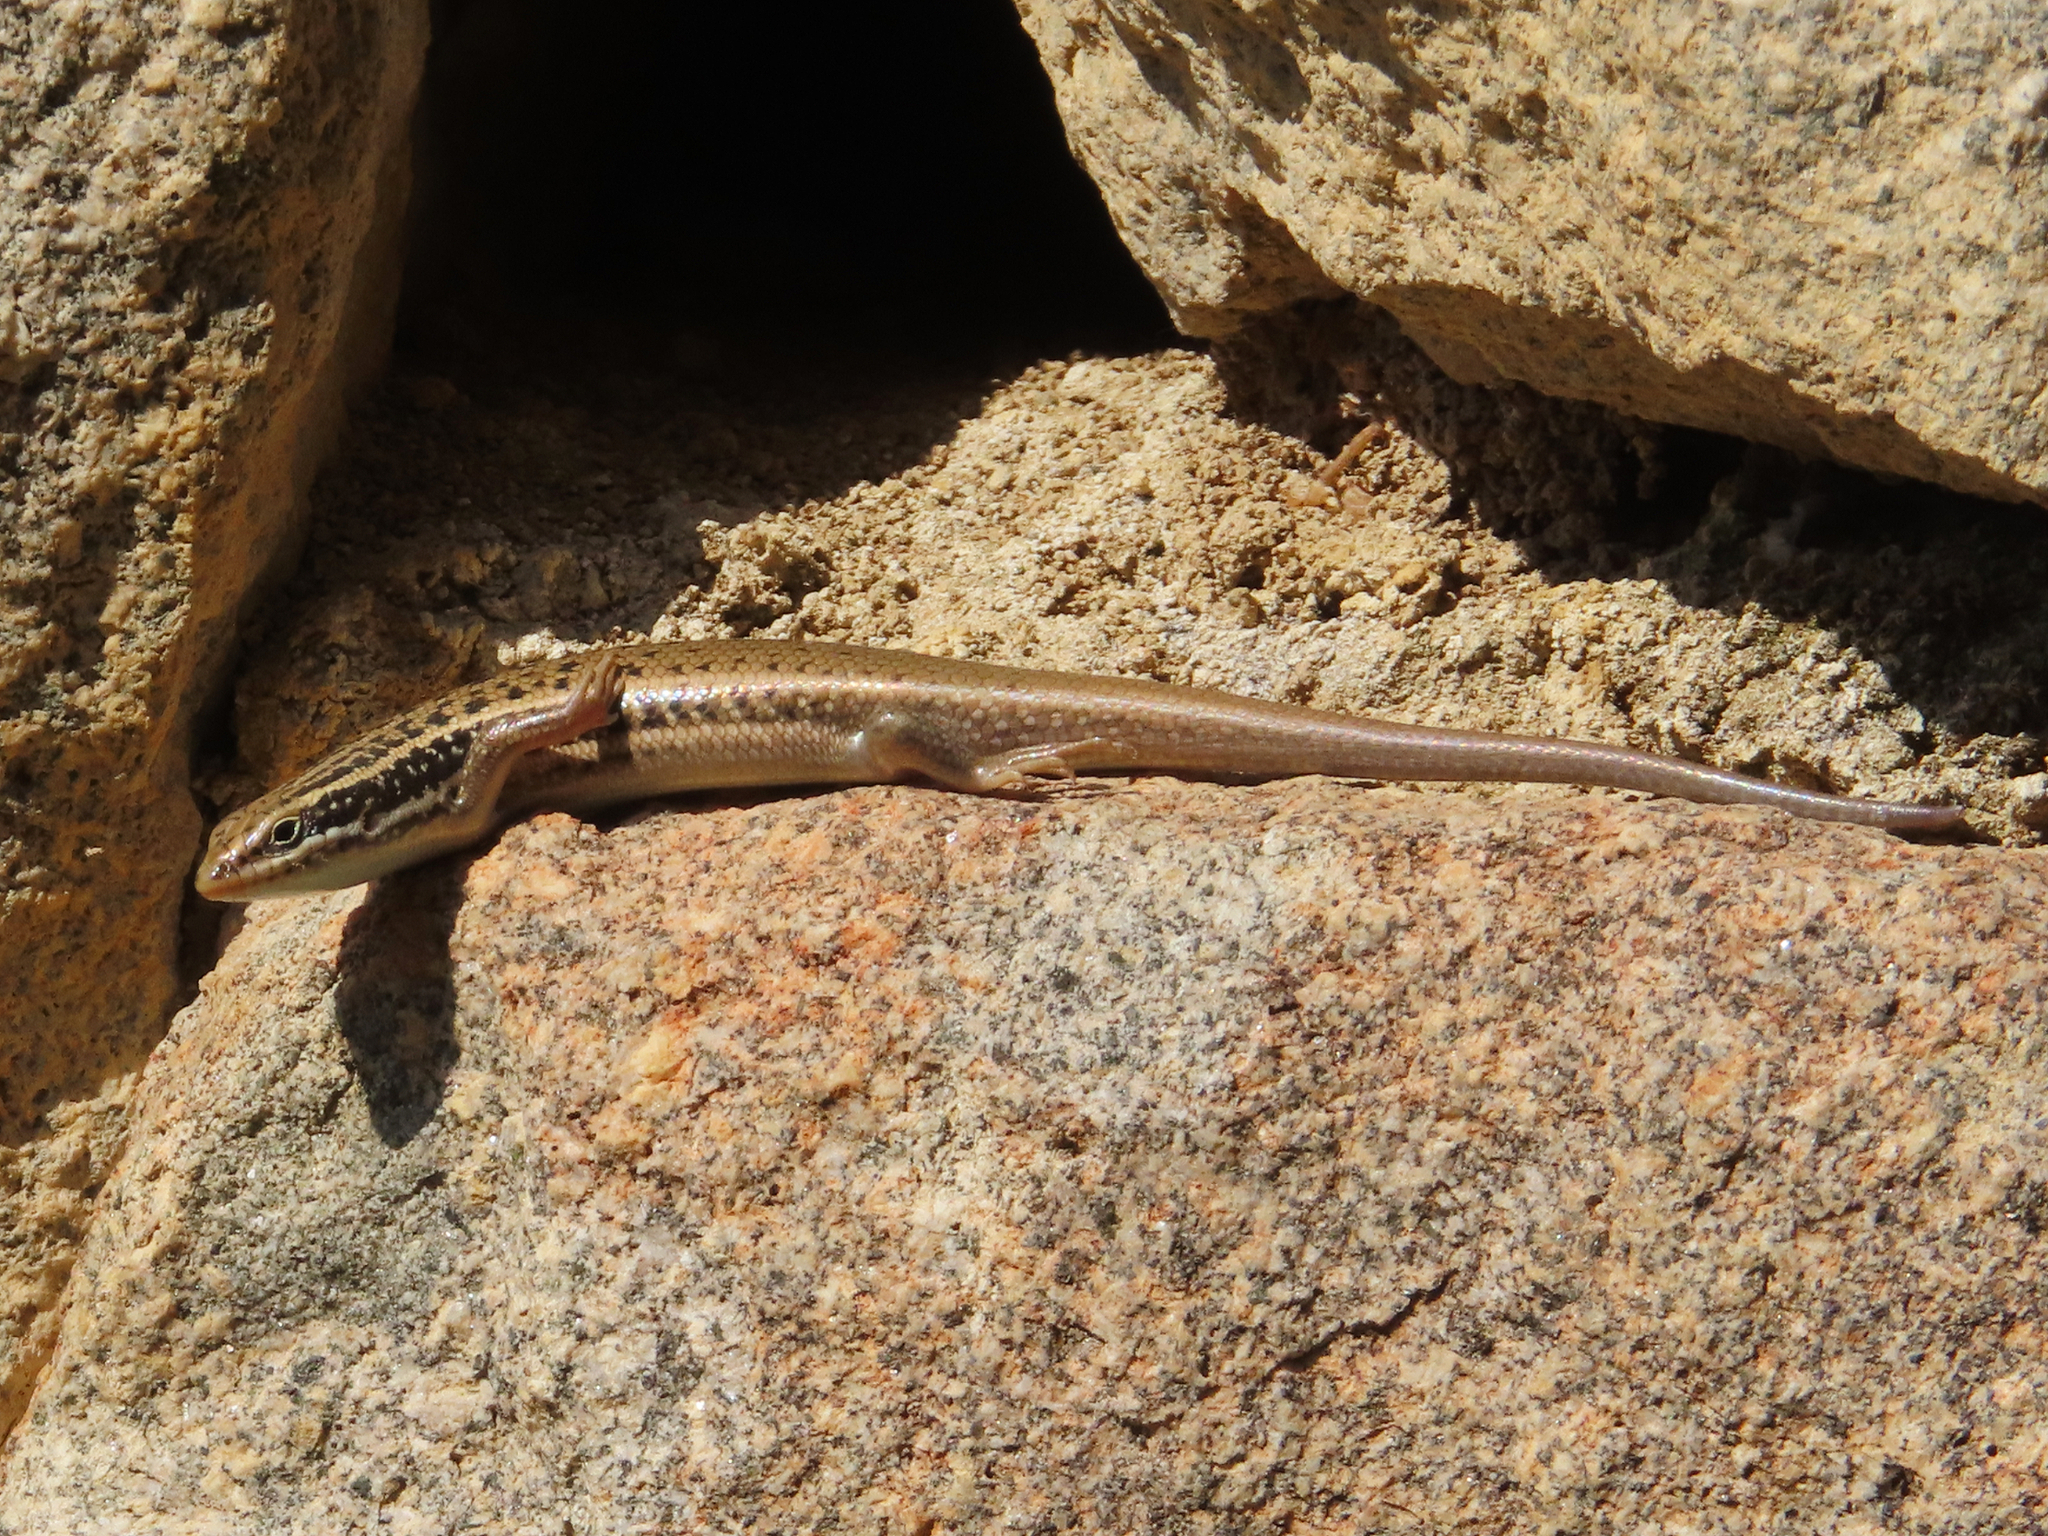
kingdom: Animalia
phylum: Chordata
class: Squamata
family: Scincidae
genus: Heremites
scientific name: Heremites septemtaeniatus
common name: Golden grass mabuya
